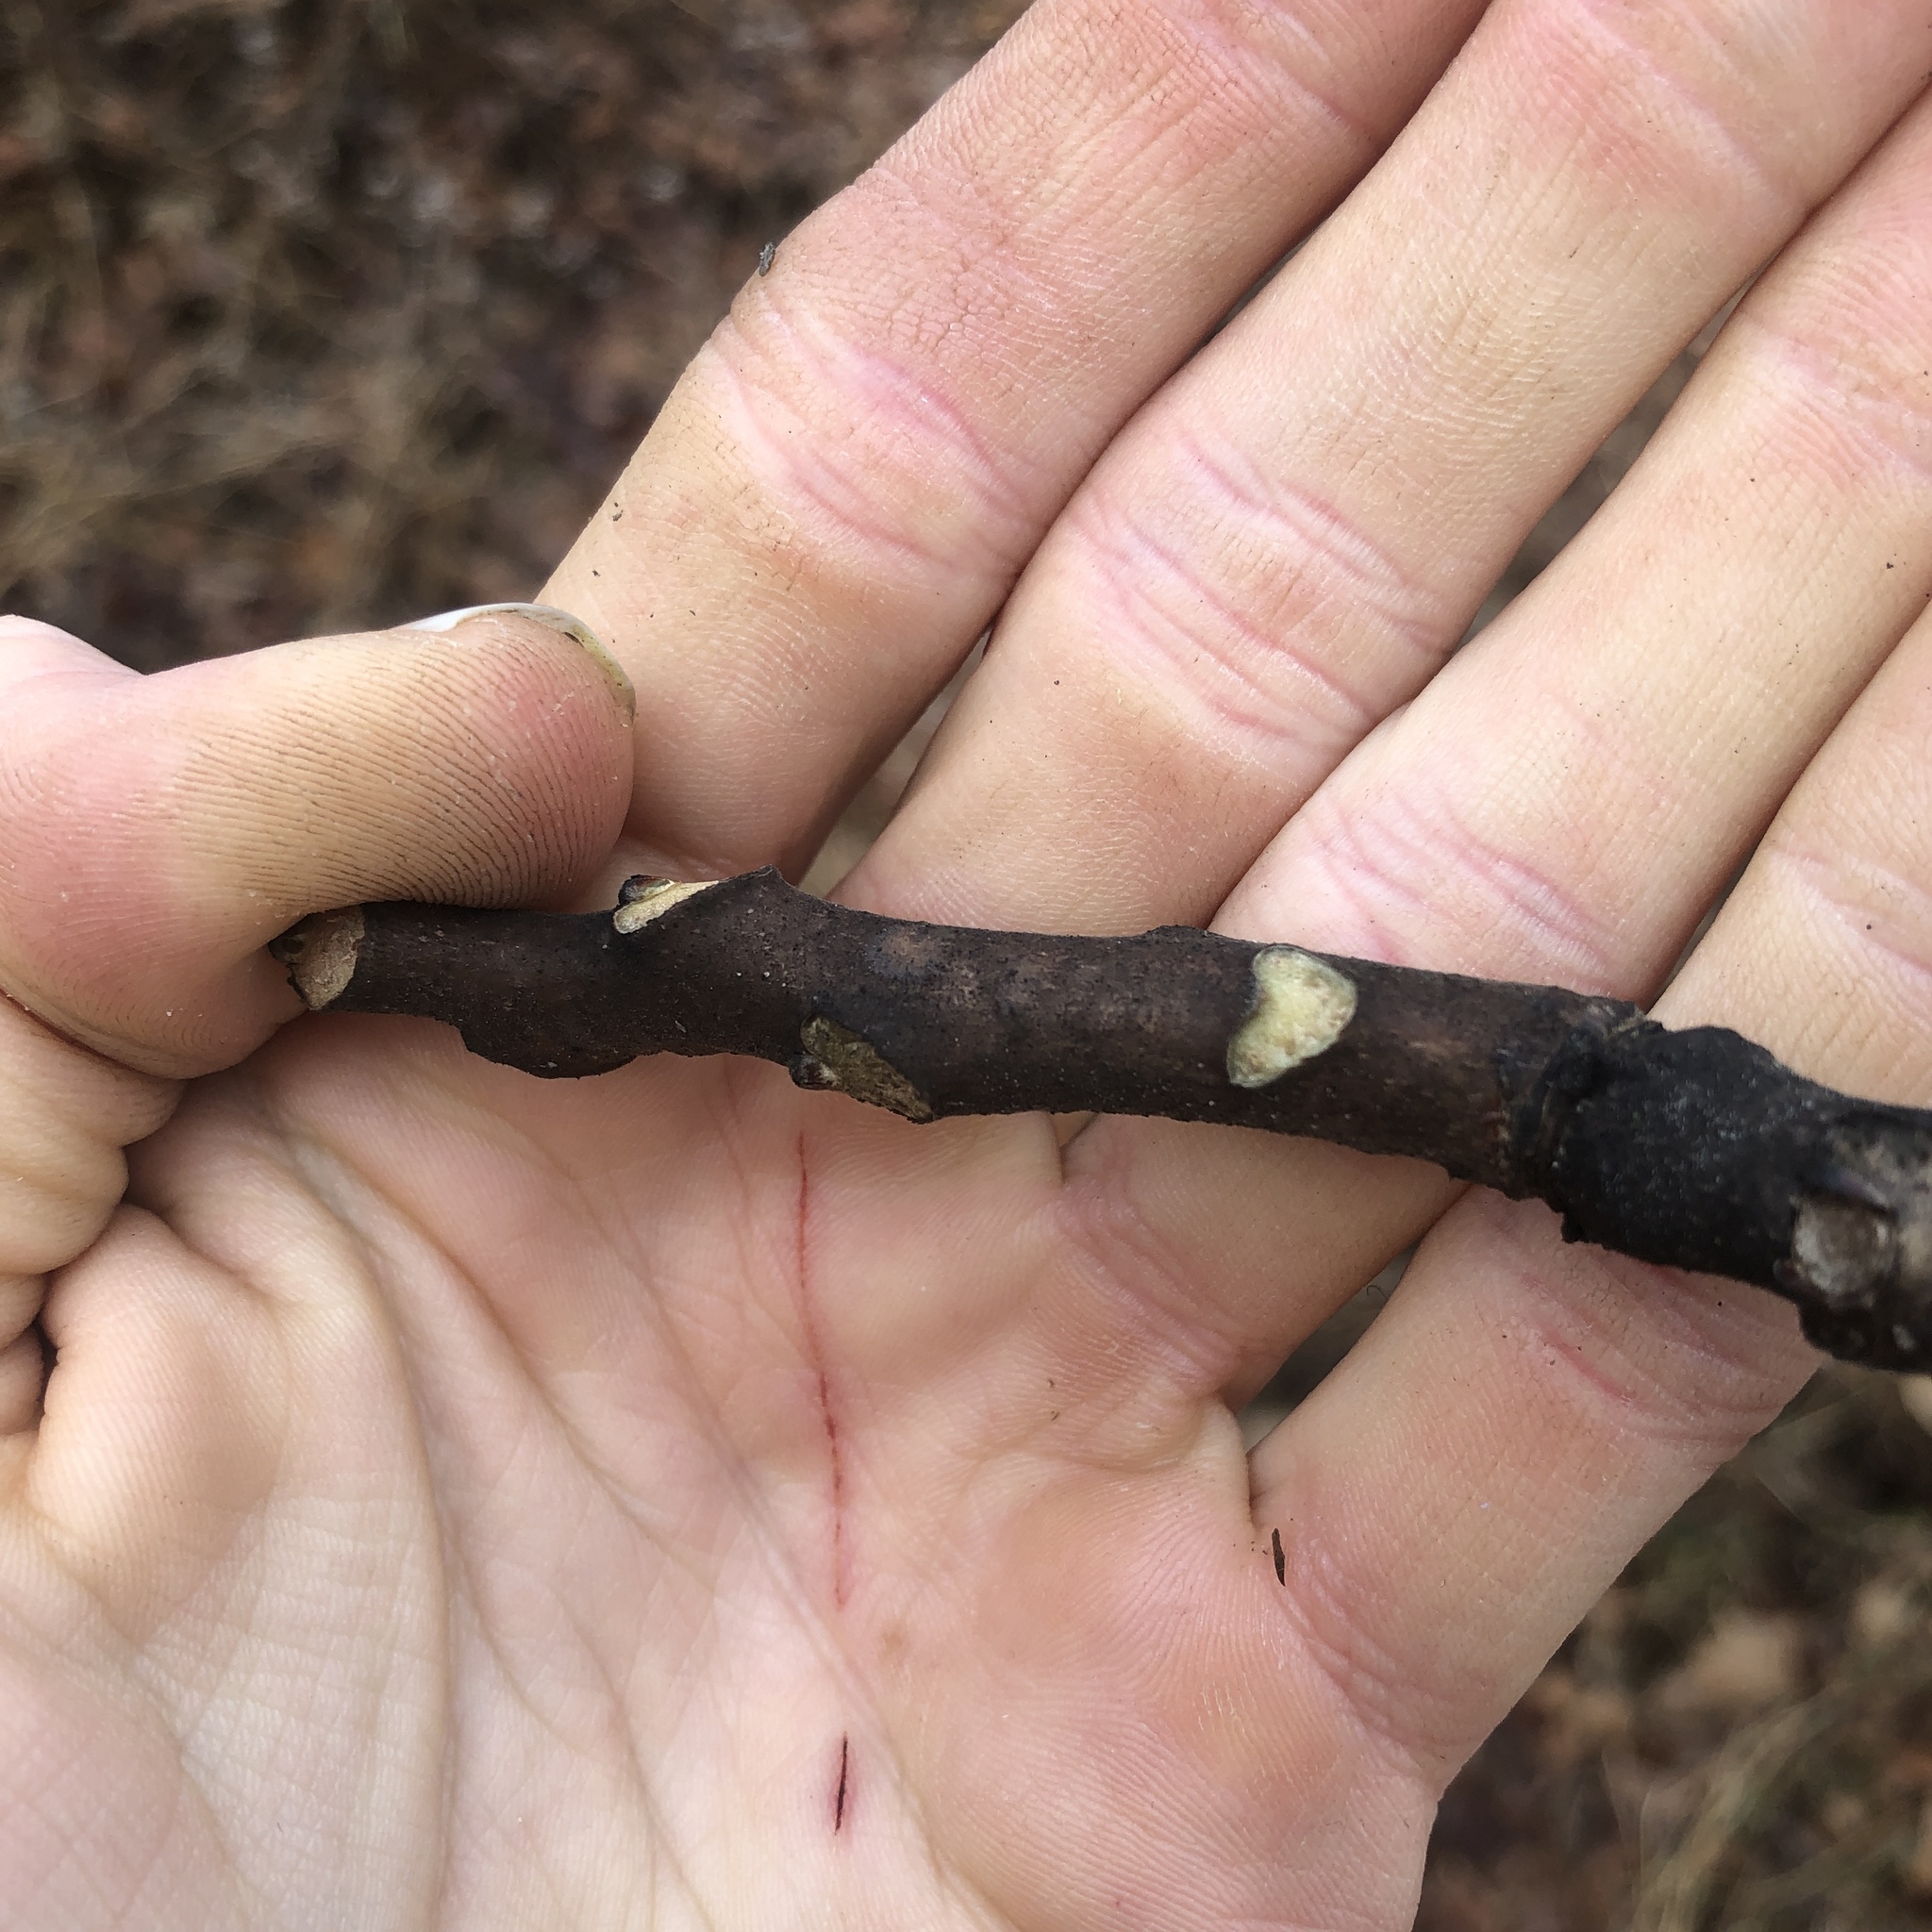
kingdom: Plantae
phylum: Tracheophyta
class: Magnoliopsida
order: Sapindales
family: Simaroubaceae
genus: Ailanthus
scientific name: Ailanthus altissima
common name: Tree-of-heaven
